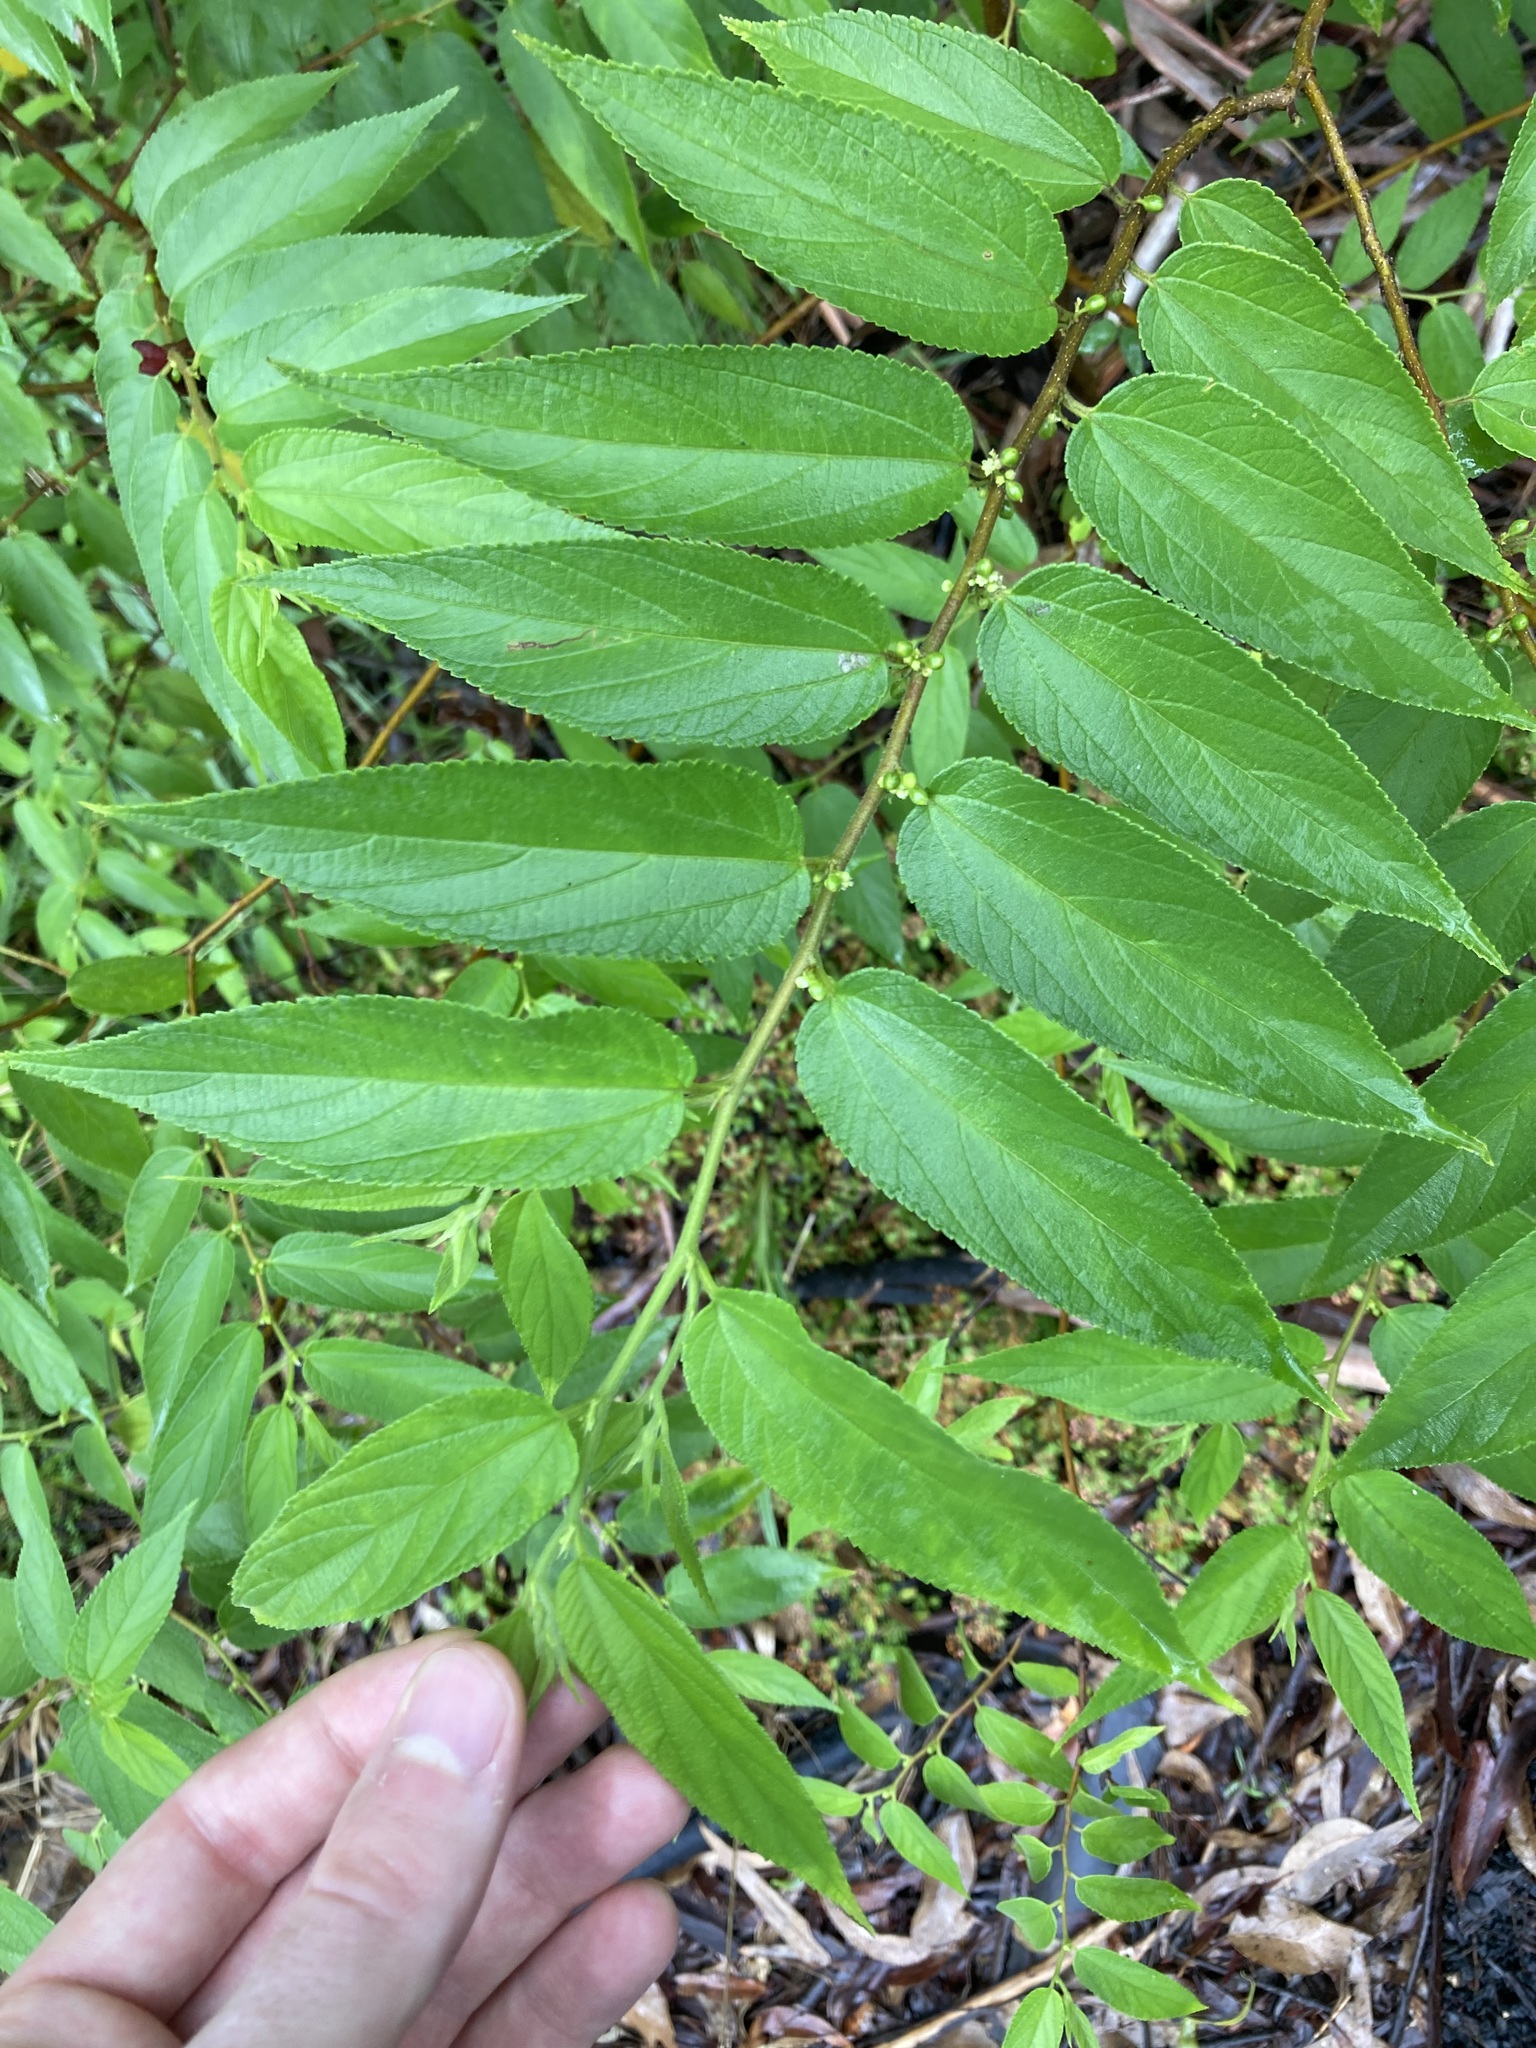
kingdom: Plantae
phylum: Tracheophyta
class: Magnoliopsida
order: Rosales
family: Cannabaceae
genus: Trema
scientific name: Trema tomentosum
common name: Peach-leaf-poisonbush
